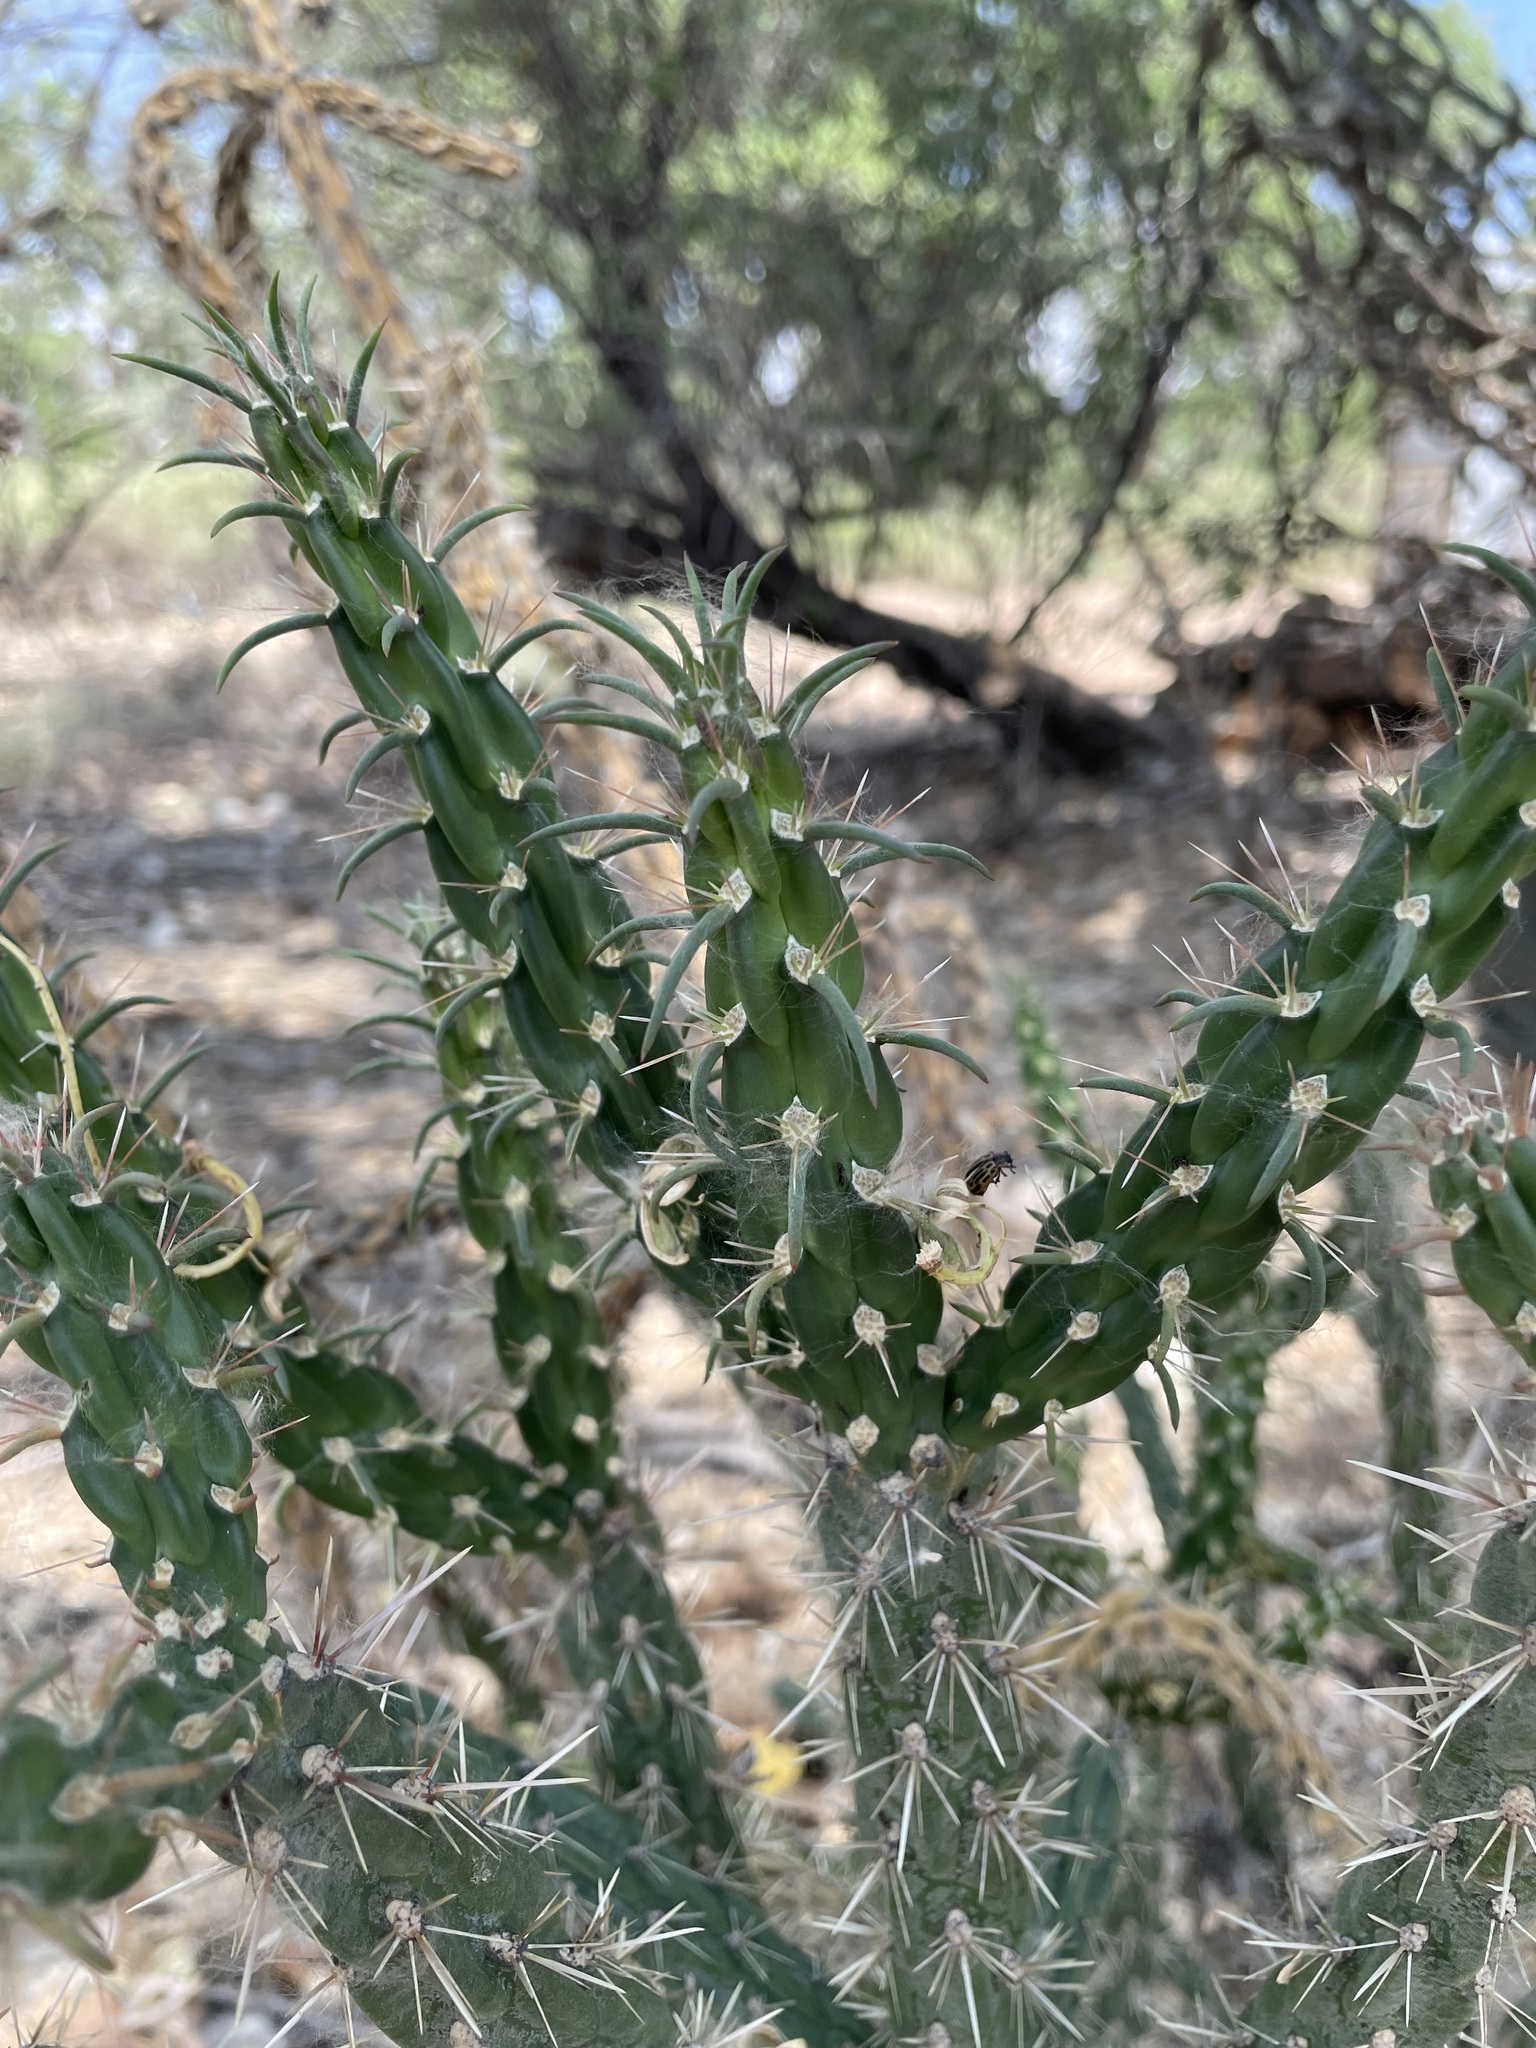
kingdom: Plantae
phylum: Tracheophyta
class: Magnoliopsida
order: Caryophyllales
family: Cactaceae
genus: Cylindropuntia
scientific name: Cylindropuntia imbricata
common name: Candelabrum cactus
